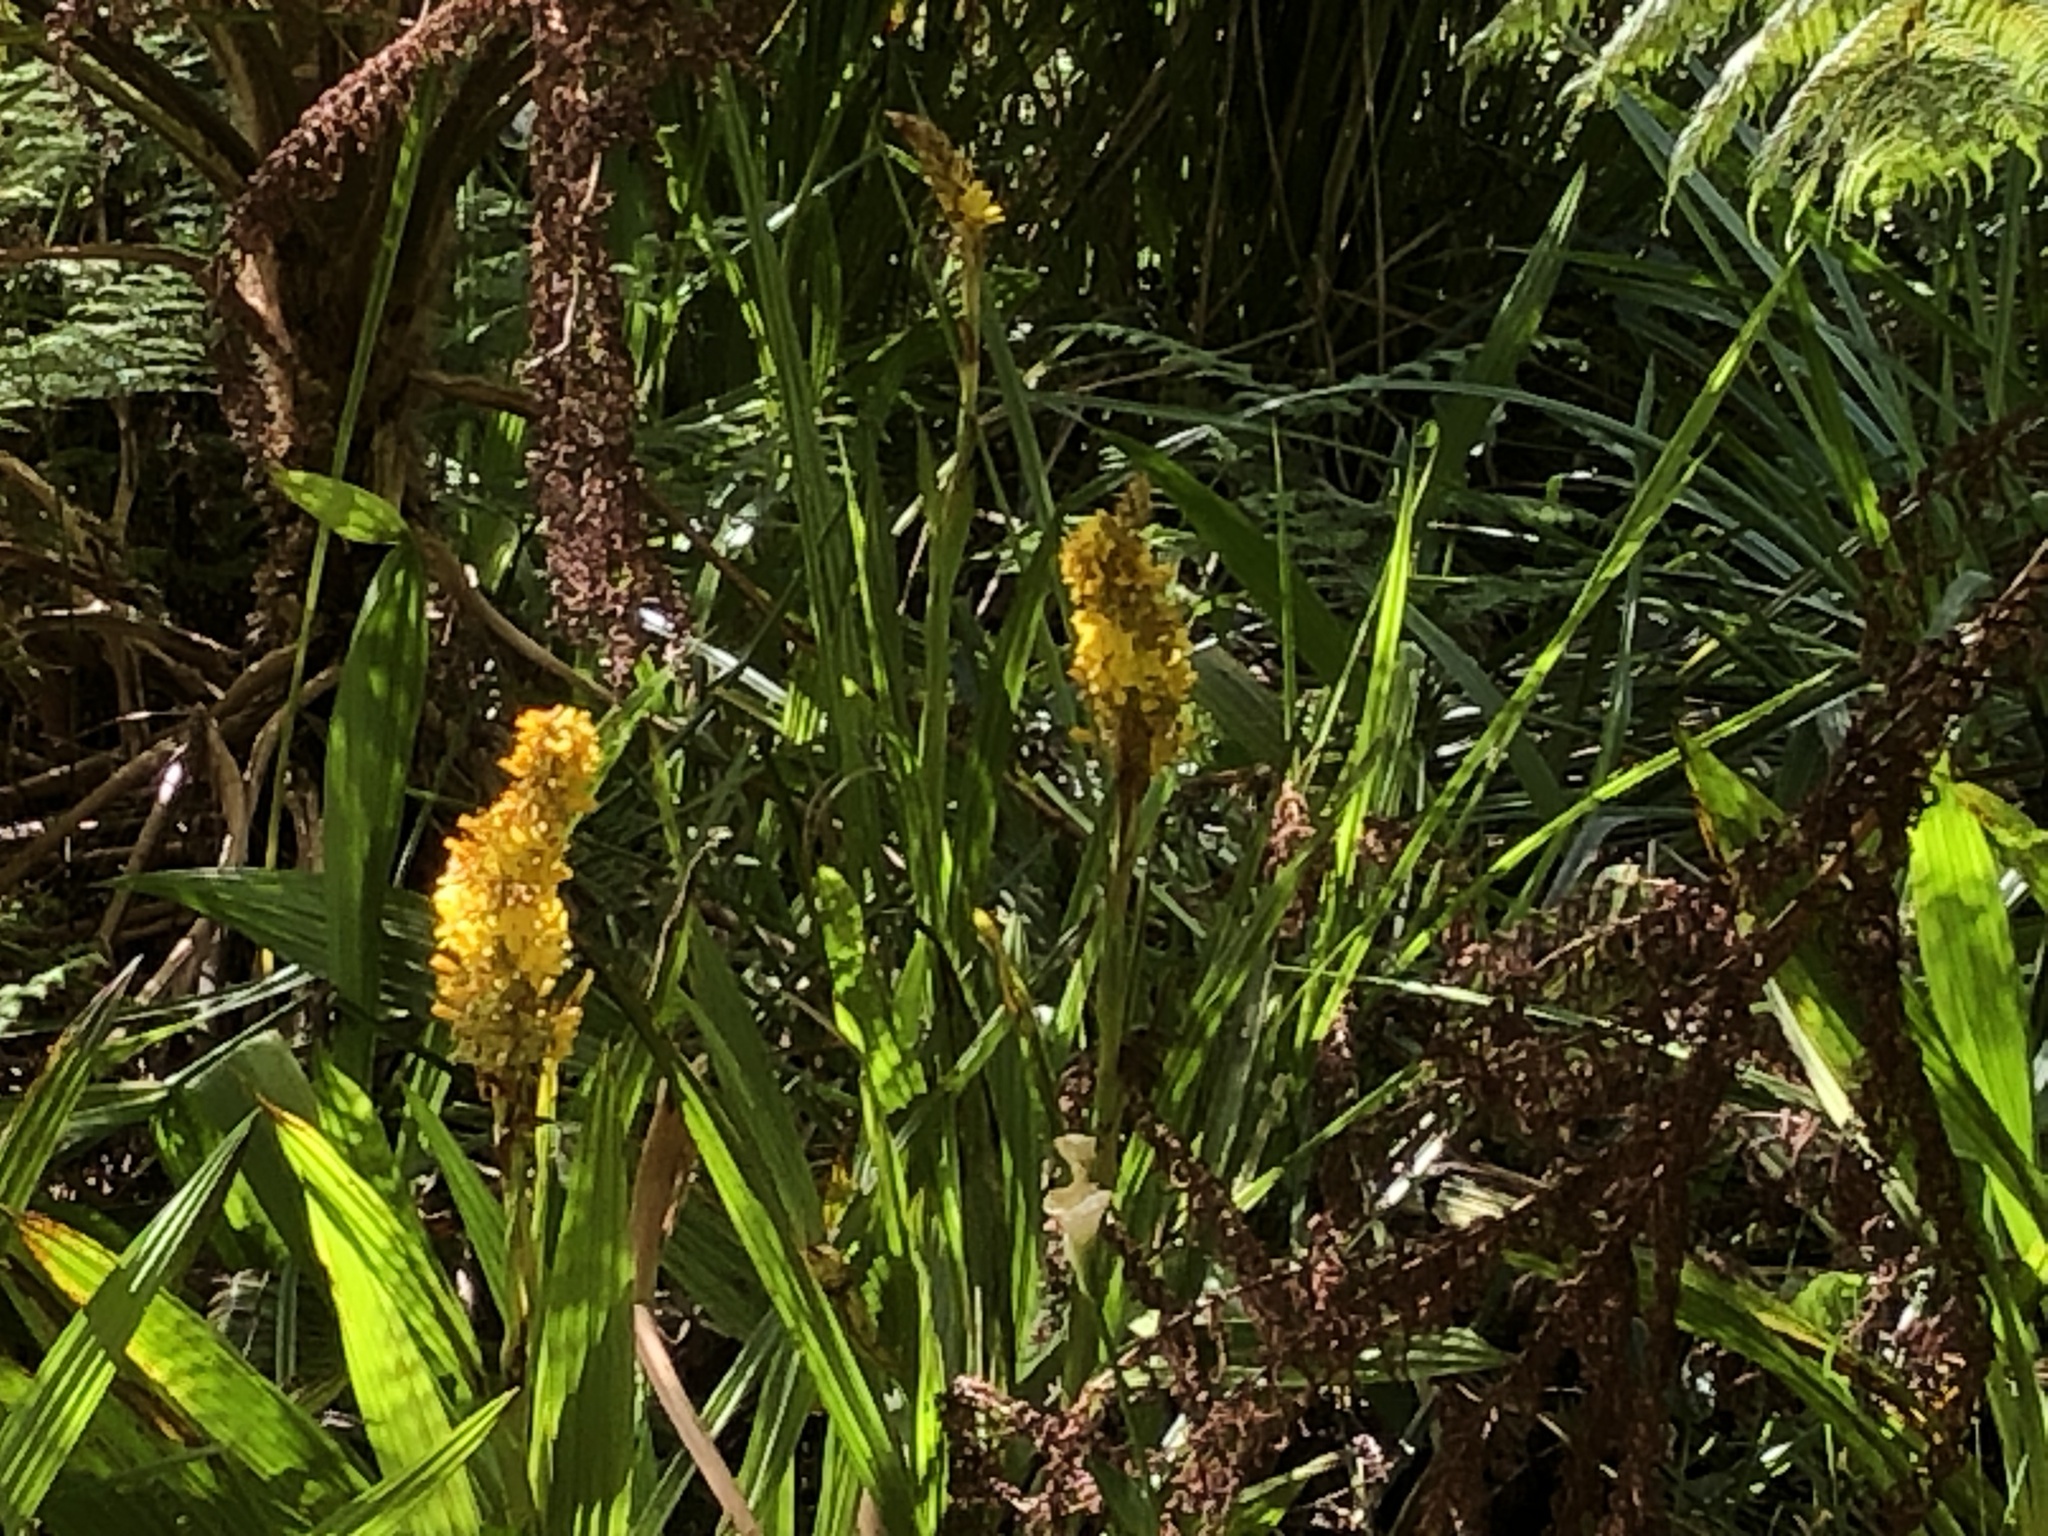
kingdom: Plantae
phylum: Tracheophyta
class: Liliopsida
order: Commelinales
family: Haemodoraceae
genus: Wachendorfia
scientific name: Wachendorfia thyrsiflora
